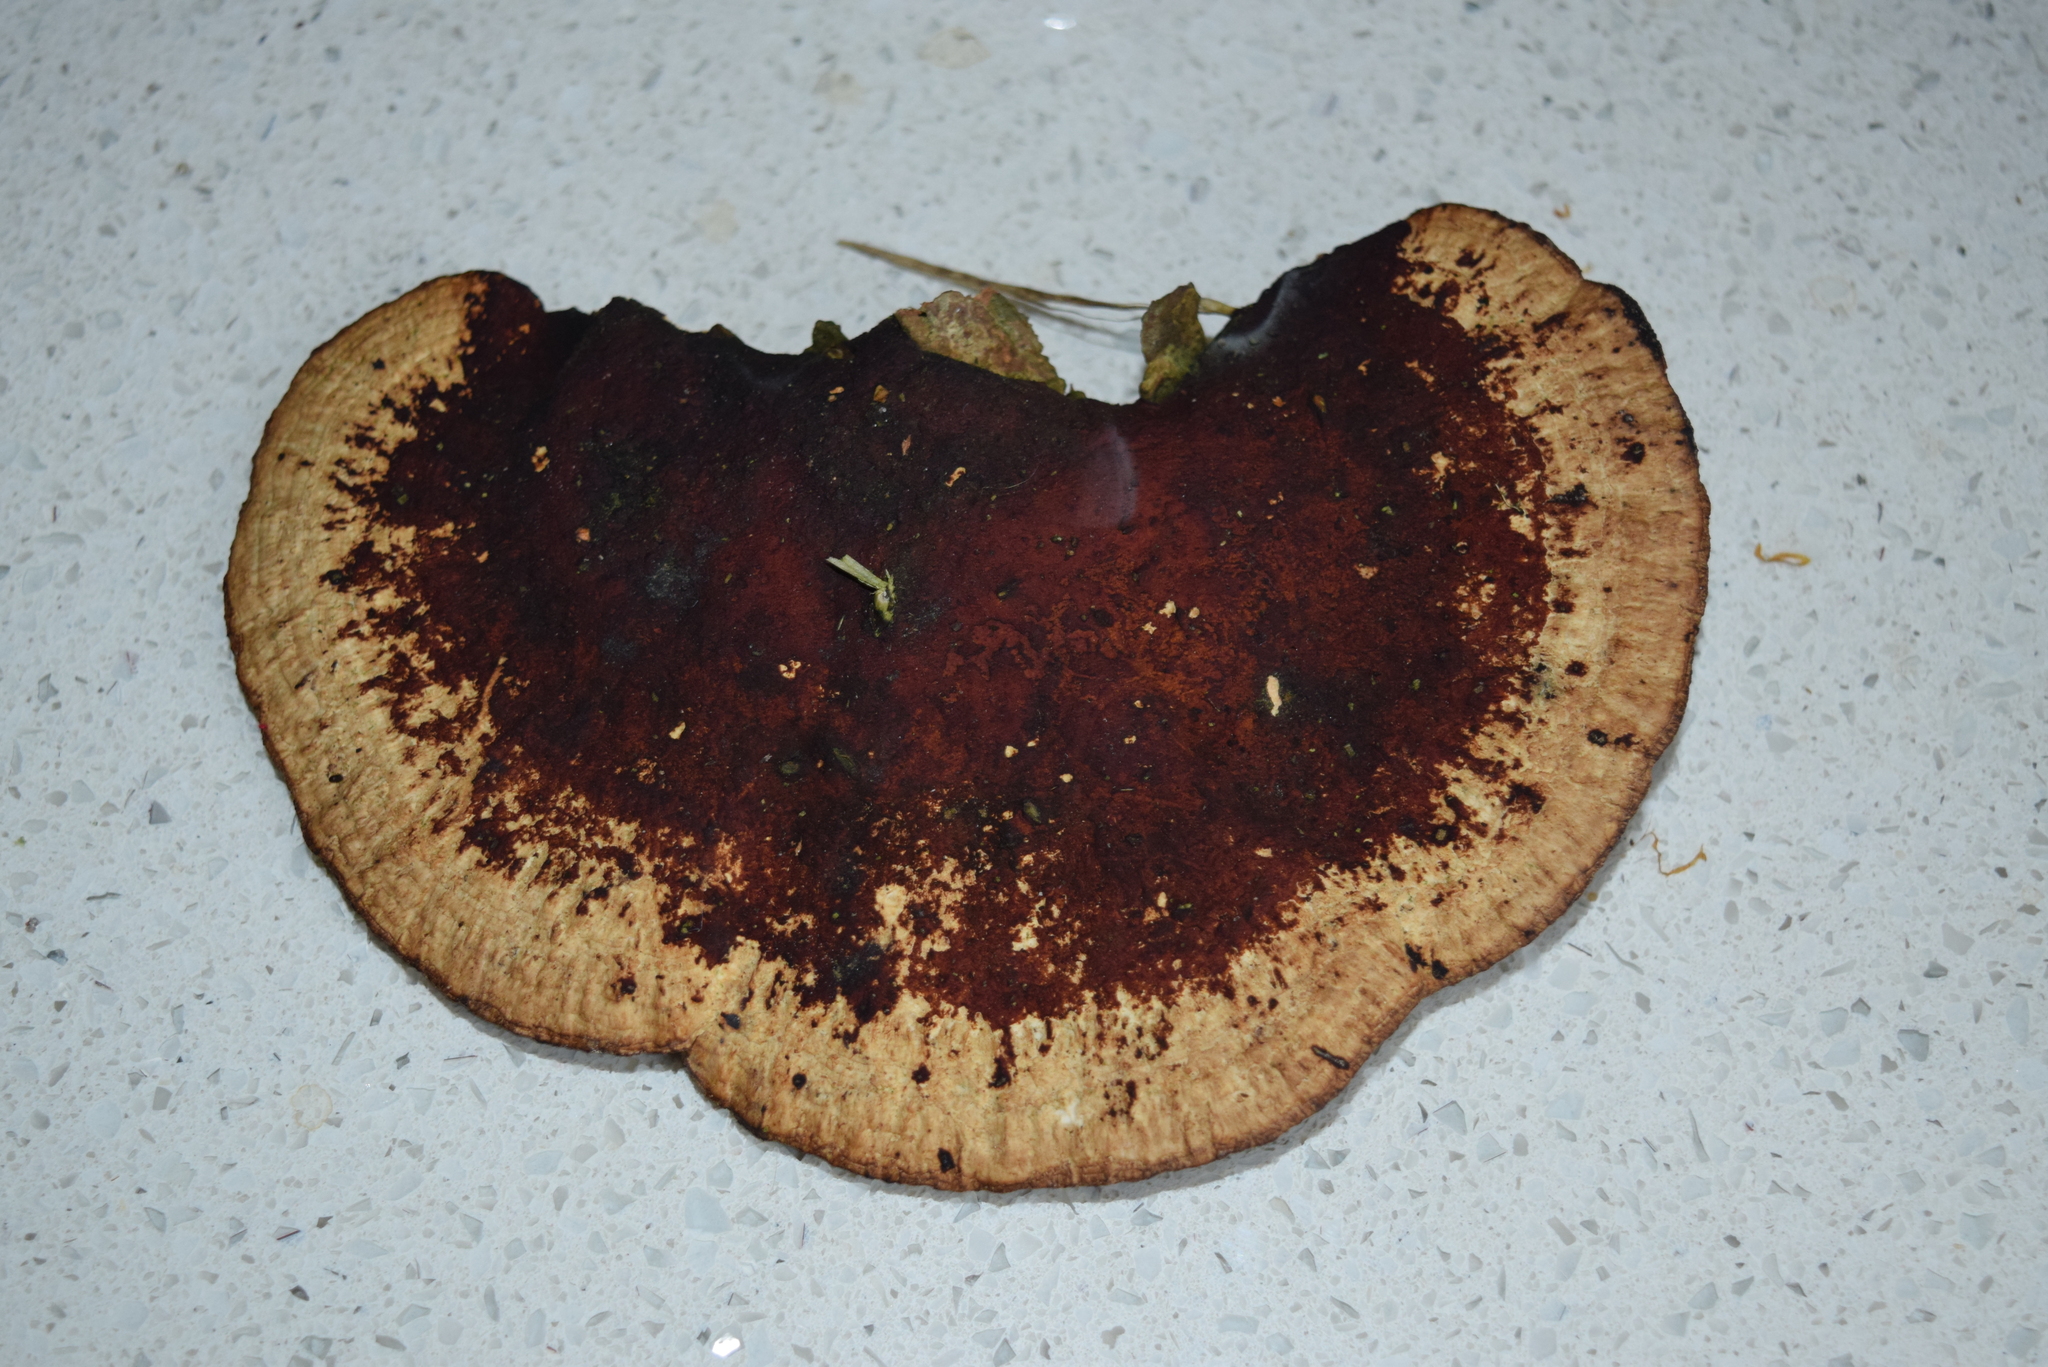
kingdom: Fungi
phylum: Basidiomycota
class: Agaricomycetes
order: Polyporales
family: Polyporaceae
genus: Daedaleopsis
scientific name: Daedaleopsis confragosa
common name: Blushing bracket
